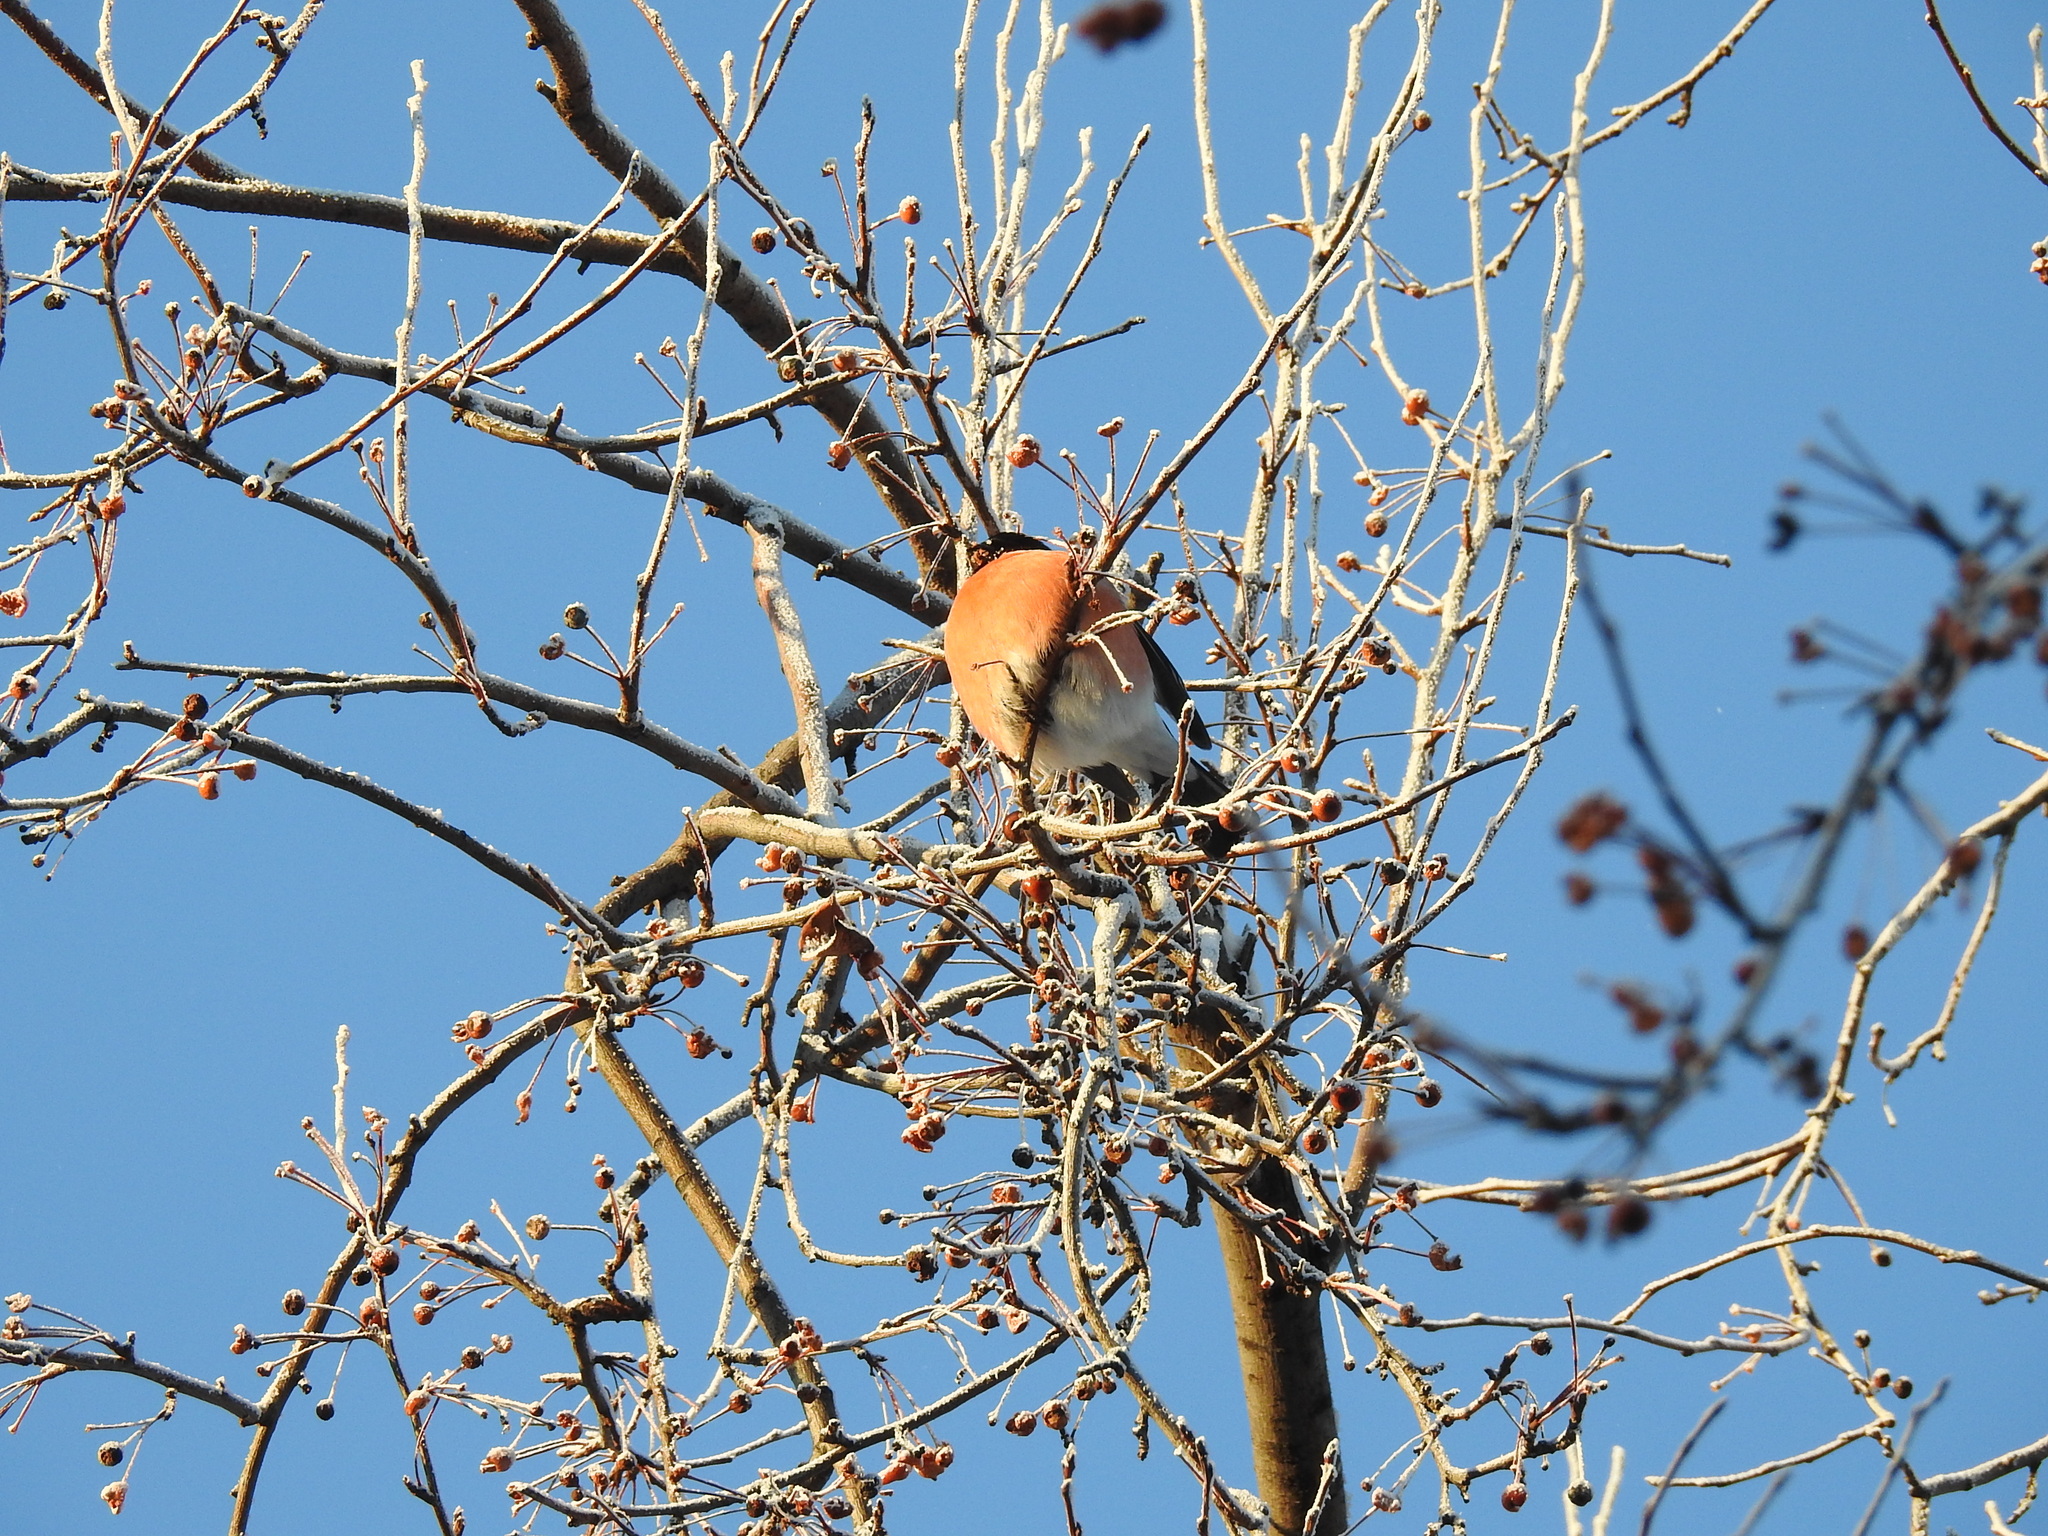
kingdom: Animalia
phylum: Chordata
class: Aves
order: Passeriformes
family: Fringillidae
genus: Pyrrhula
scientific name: Pyrrhula pyrrhula
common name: Eurasian bullfinch
